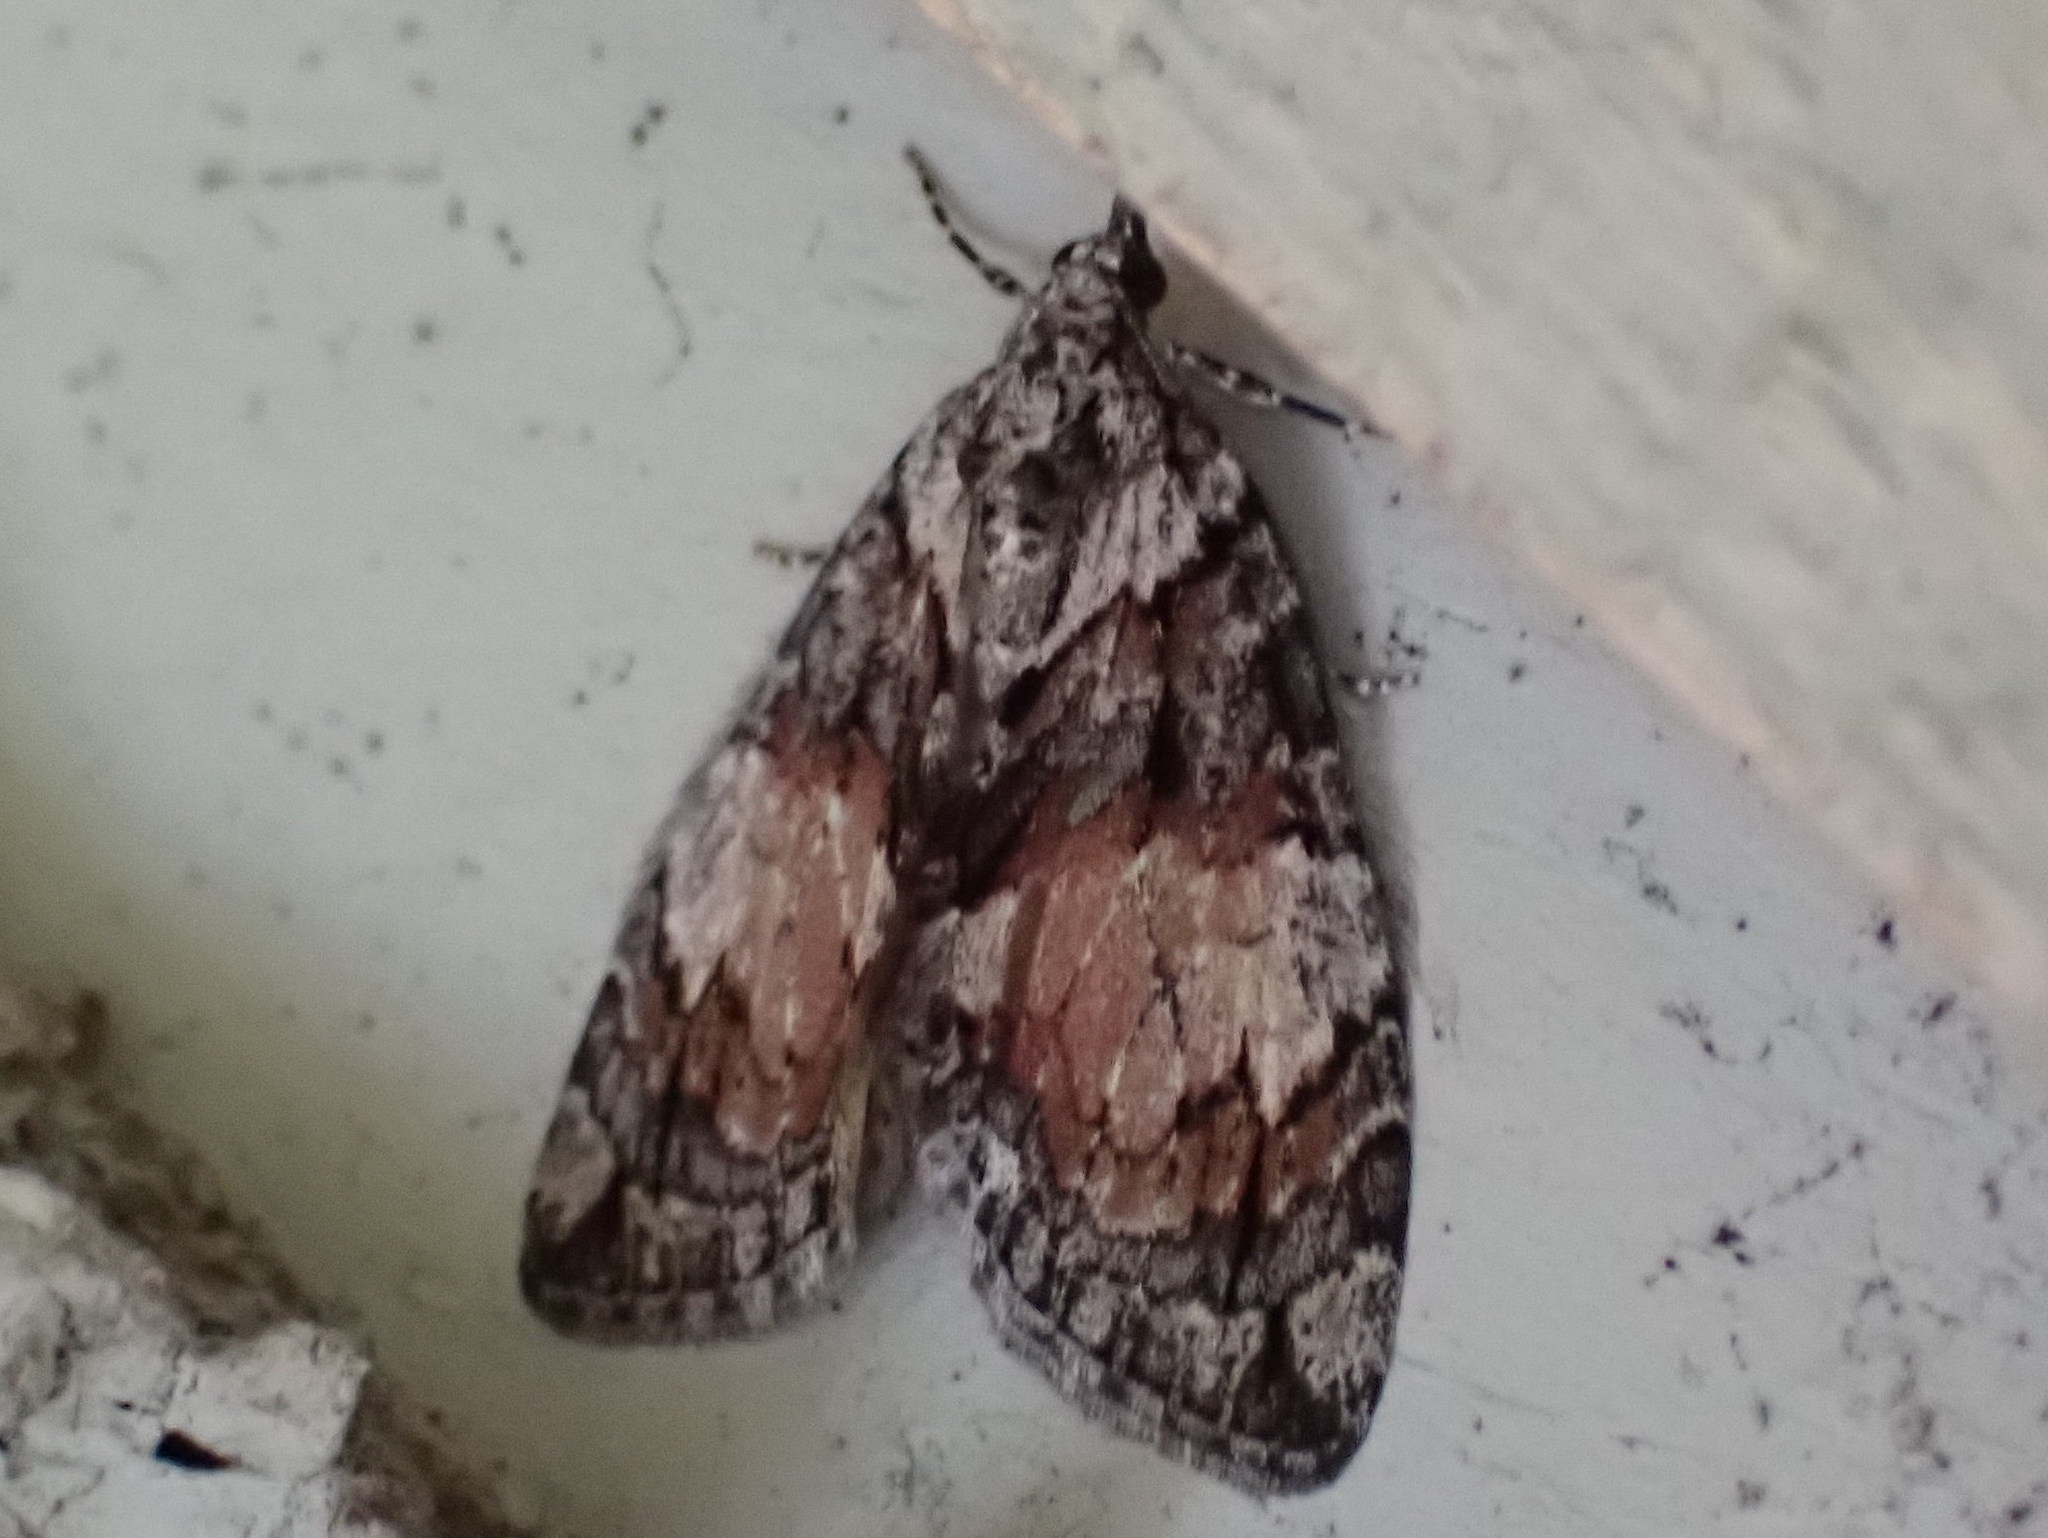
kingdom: Animalia
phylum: Arthropoda
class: Insecta
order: Lepidoptera
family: Geometridae
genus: Hydriomena
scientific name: Hydriomena perfracta
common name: Shattered hydriomena moth
